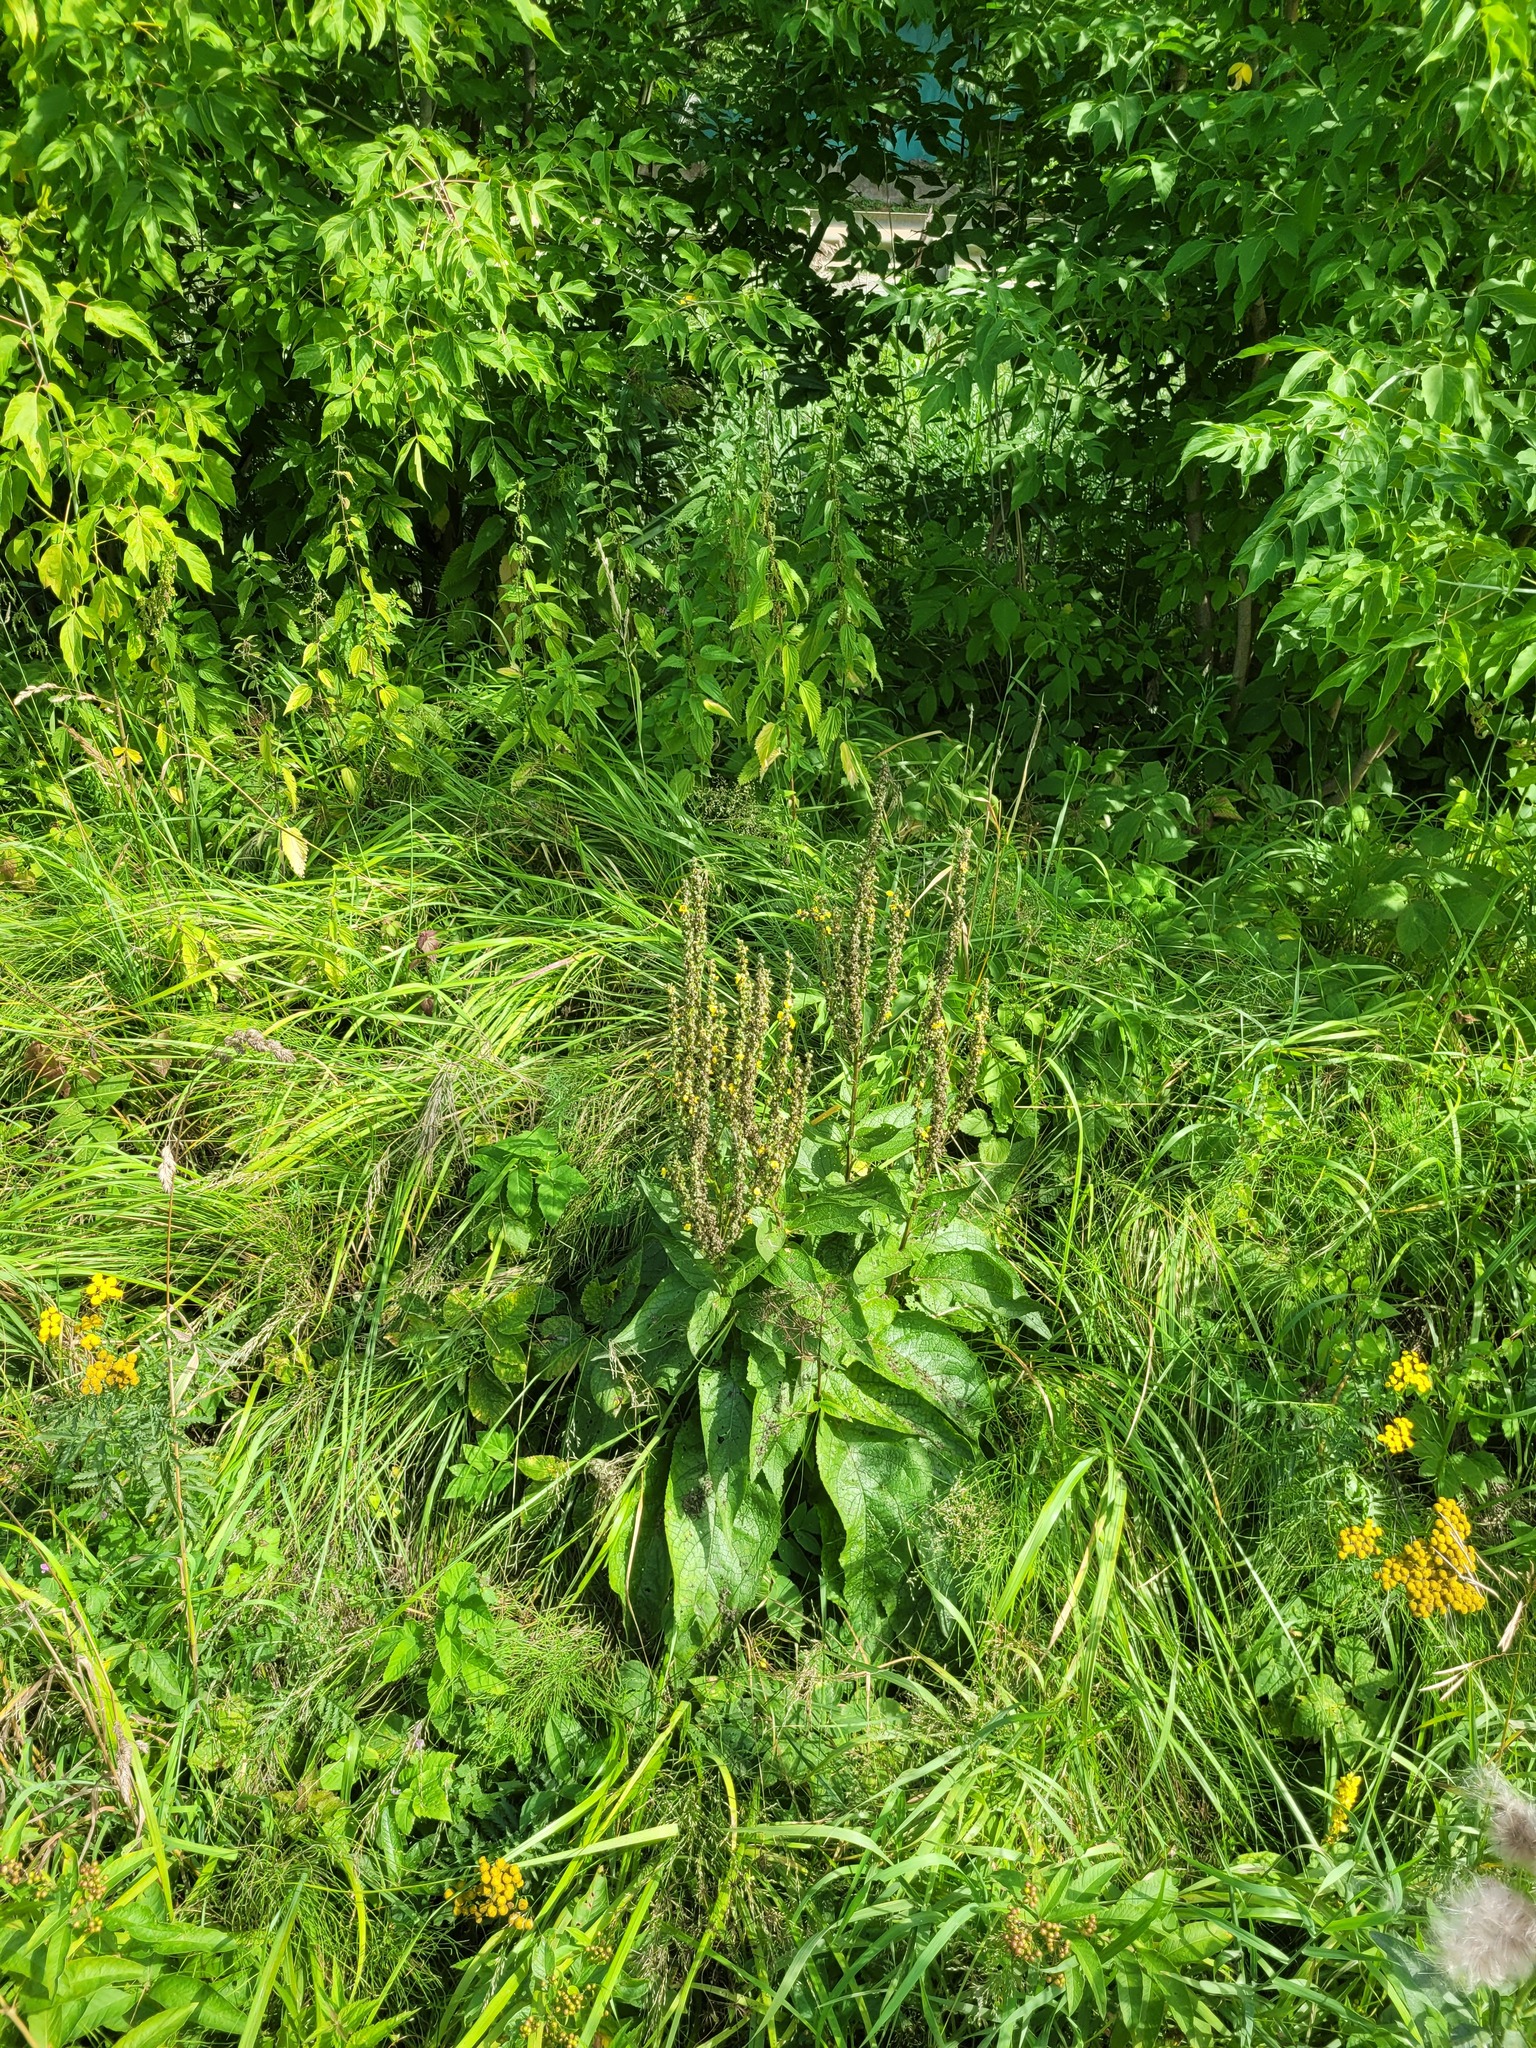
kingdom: Plantae
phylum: Tracheophyta
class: Magnoliopsida
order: Lamiales
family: Scrophulariaceae
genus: Verbascum
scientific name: Verbascum nigrum
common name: Dark mullein
